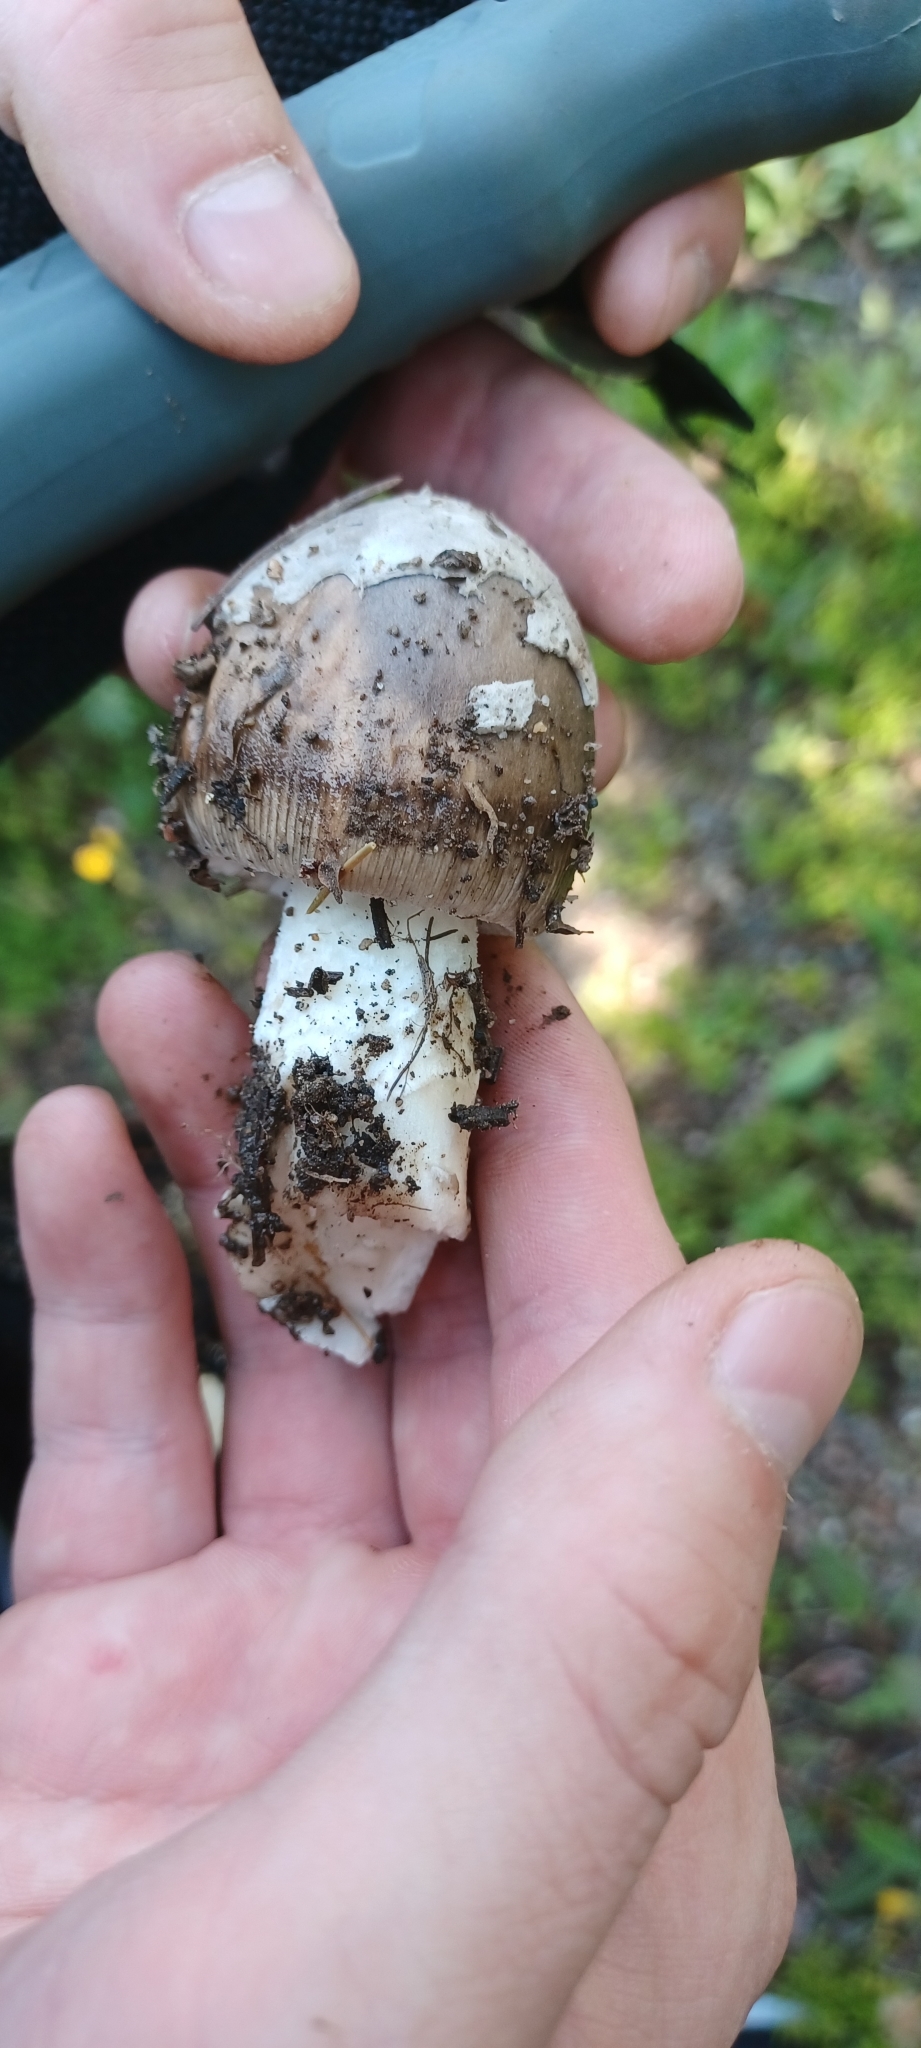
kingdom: Fungi
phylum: Basidiomycota
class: Agaricomycetes
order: Agaricales
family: Amanitaceae
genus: Amanita
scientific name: Amanita vaginata
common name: Grisette
